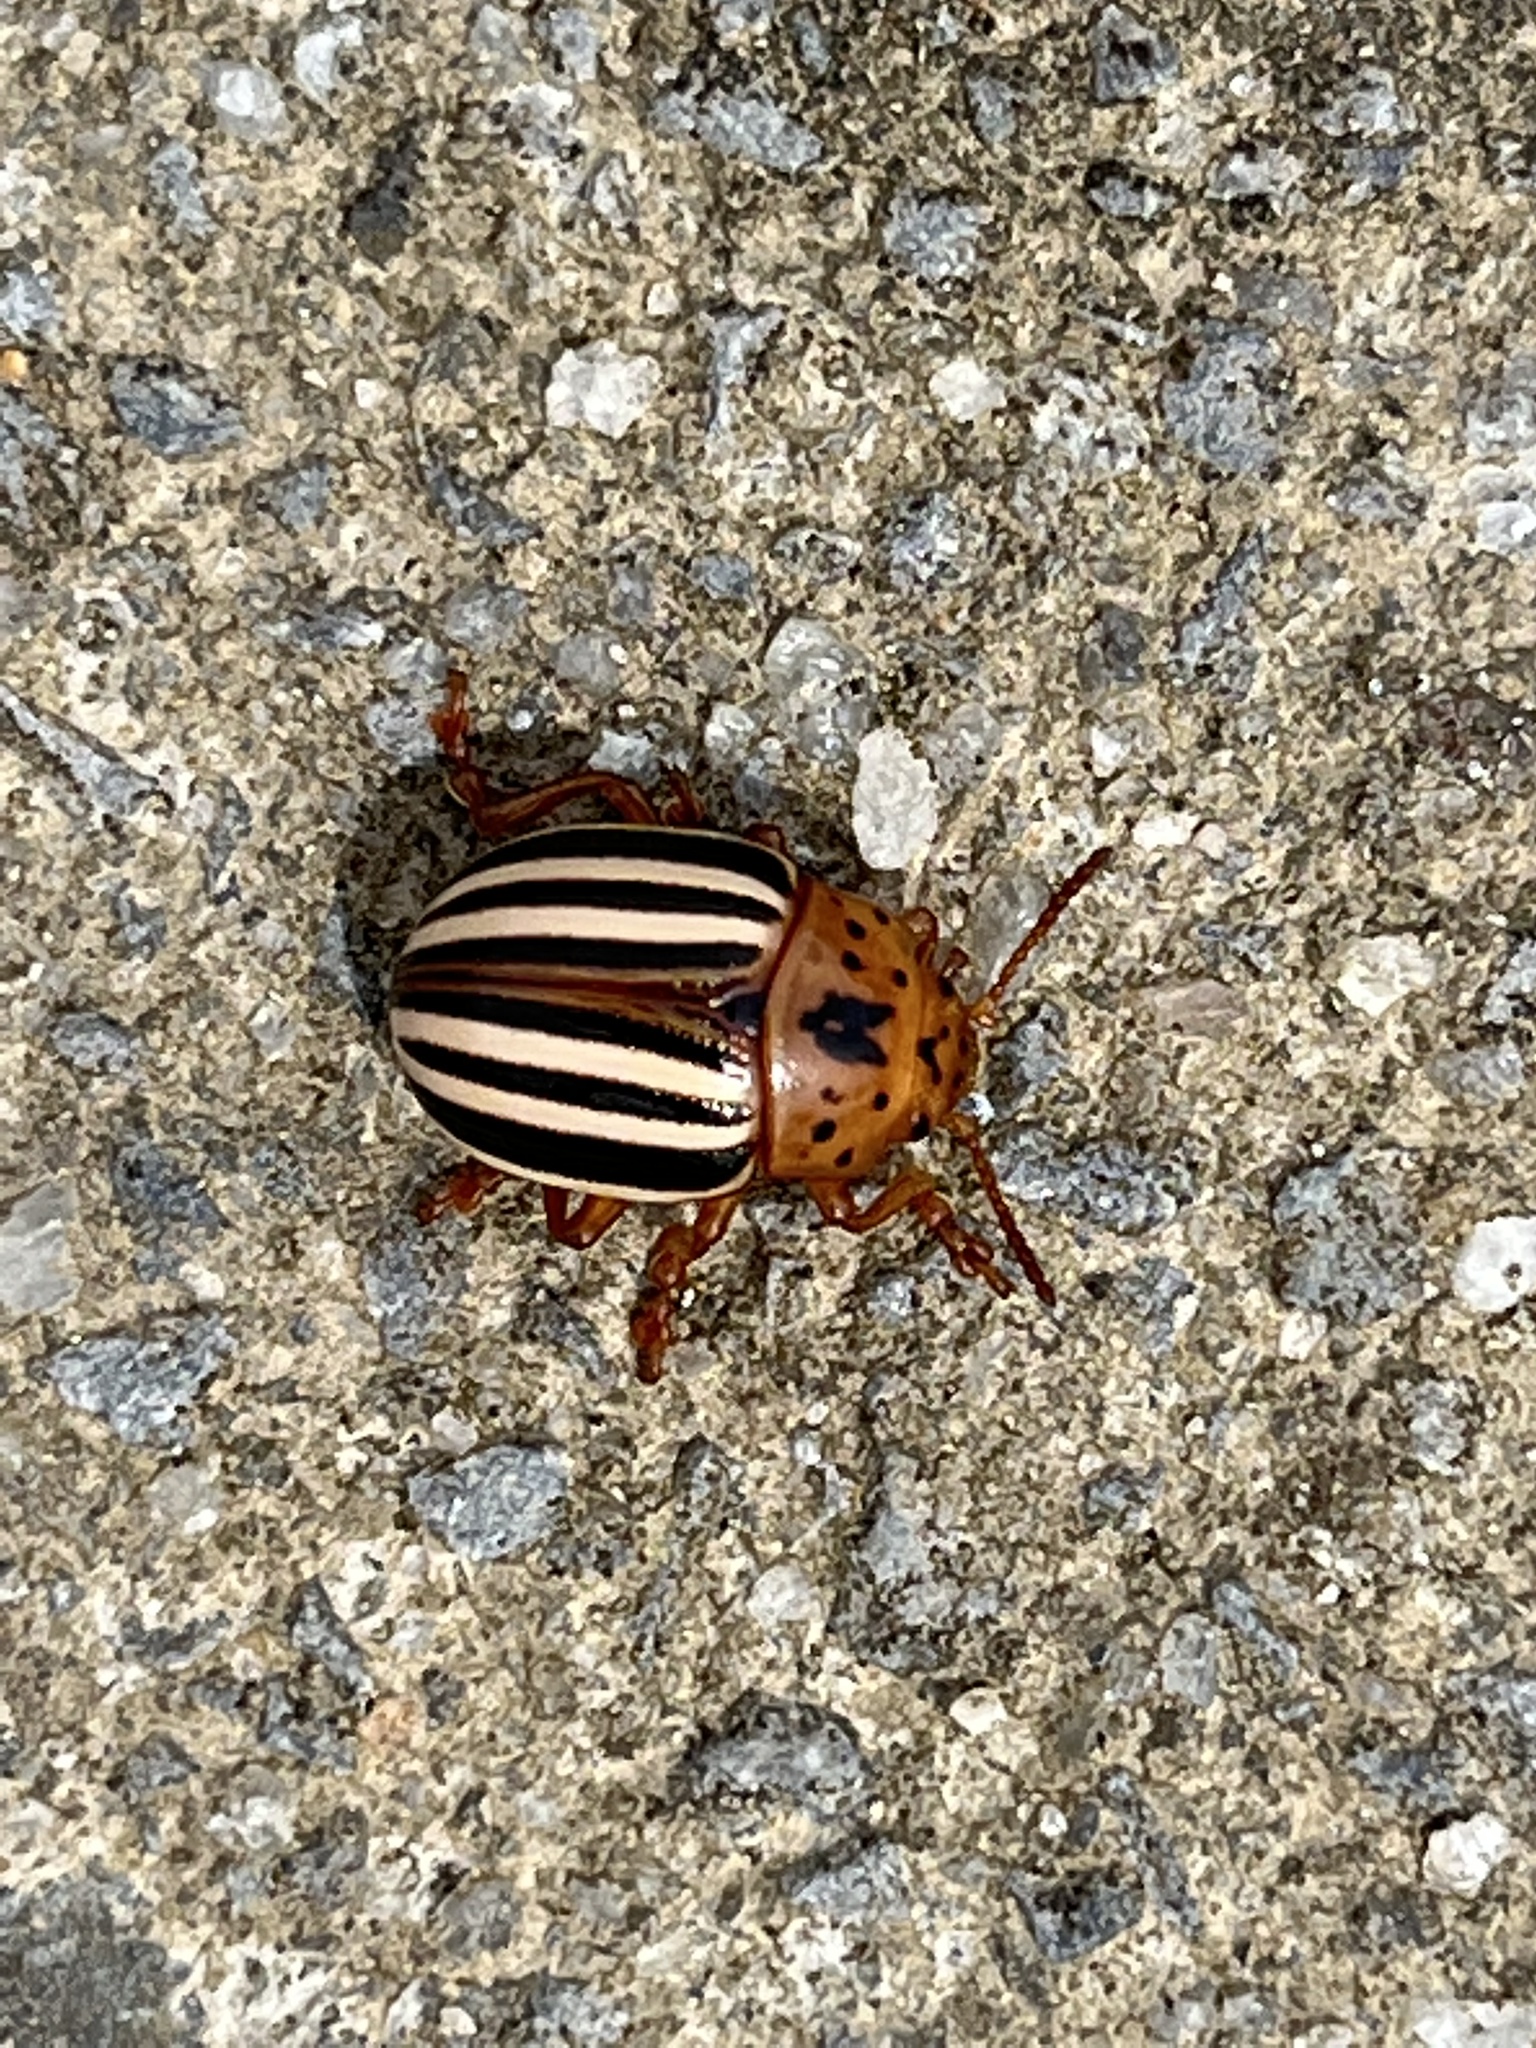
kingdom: Animalia
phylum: Arthropoda
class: Insecta
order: Coleoptera
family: Chrysomelidae
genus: Leptinotarsa
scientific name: Leptinotarsa juncta
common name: False potato beetle
